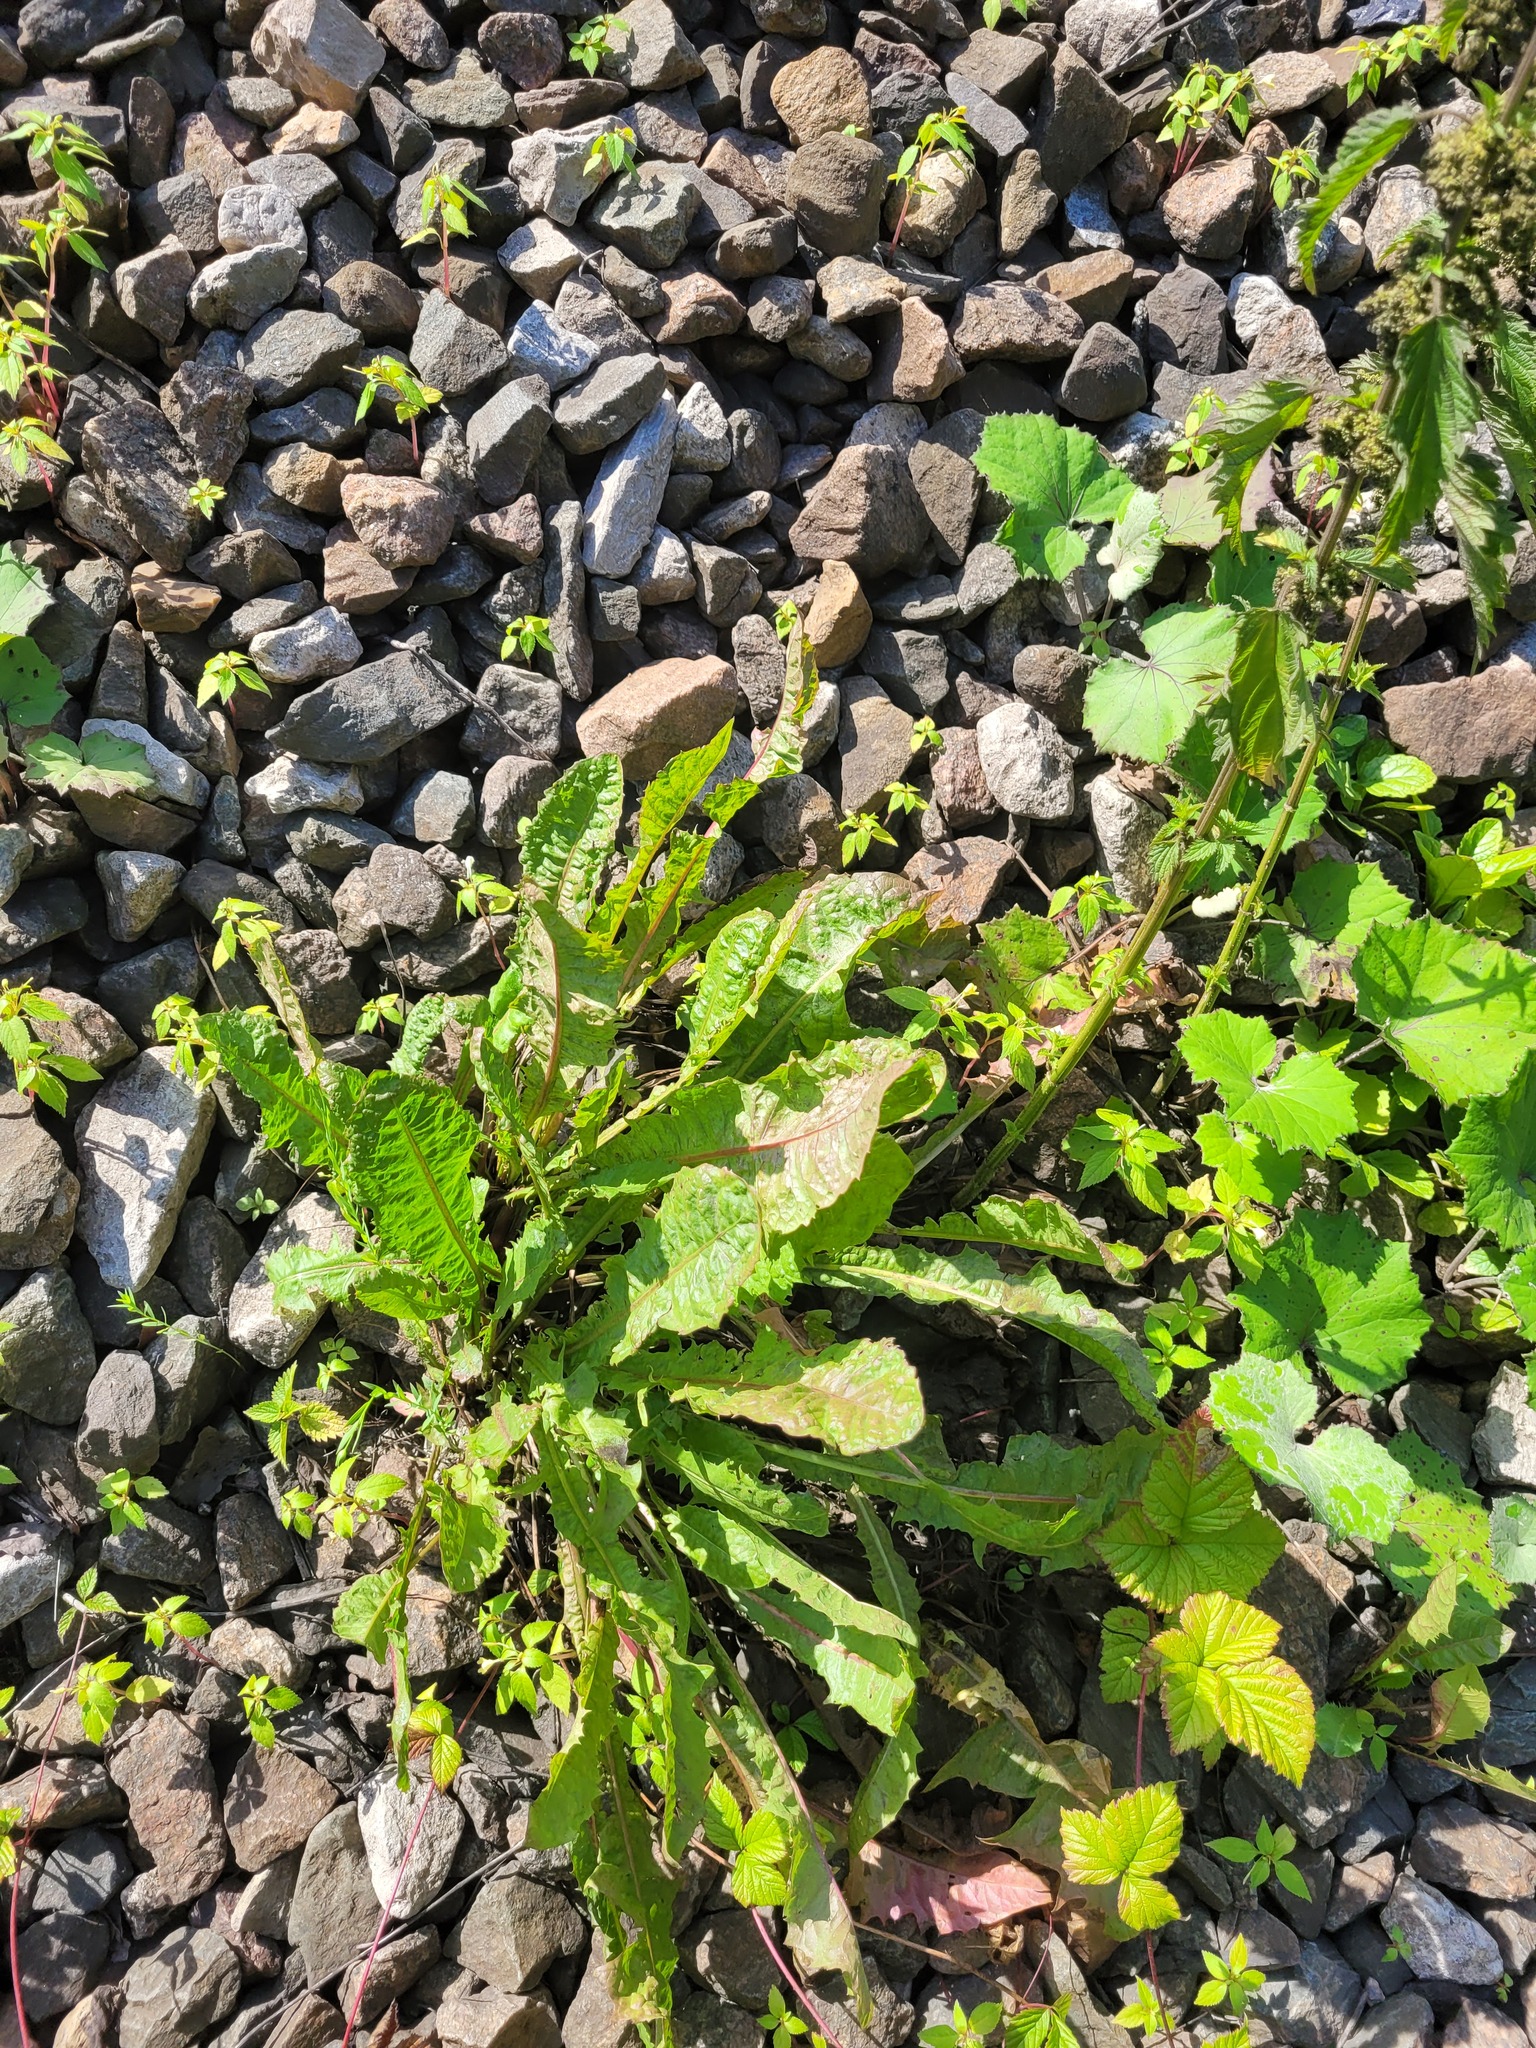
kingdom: Plantae
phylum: Tracheophyta
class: Magnoliopsida
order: Asterales
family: Asteraceae
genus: Taraxacum
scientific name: Taraxacum officinale
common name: Common dandelion
